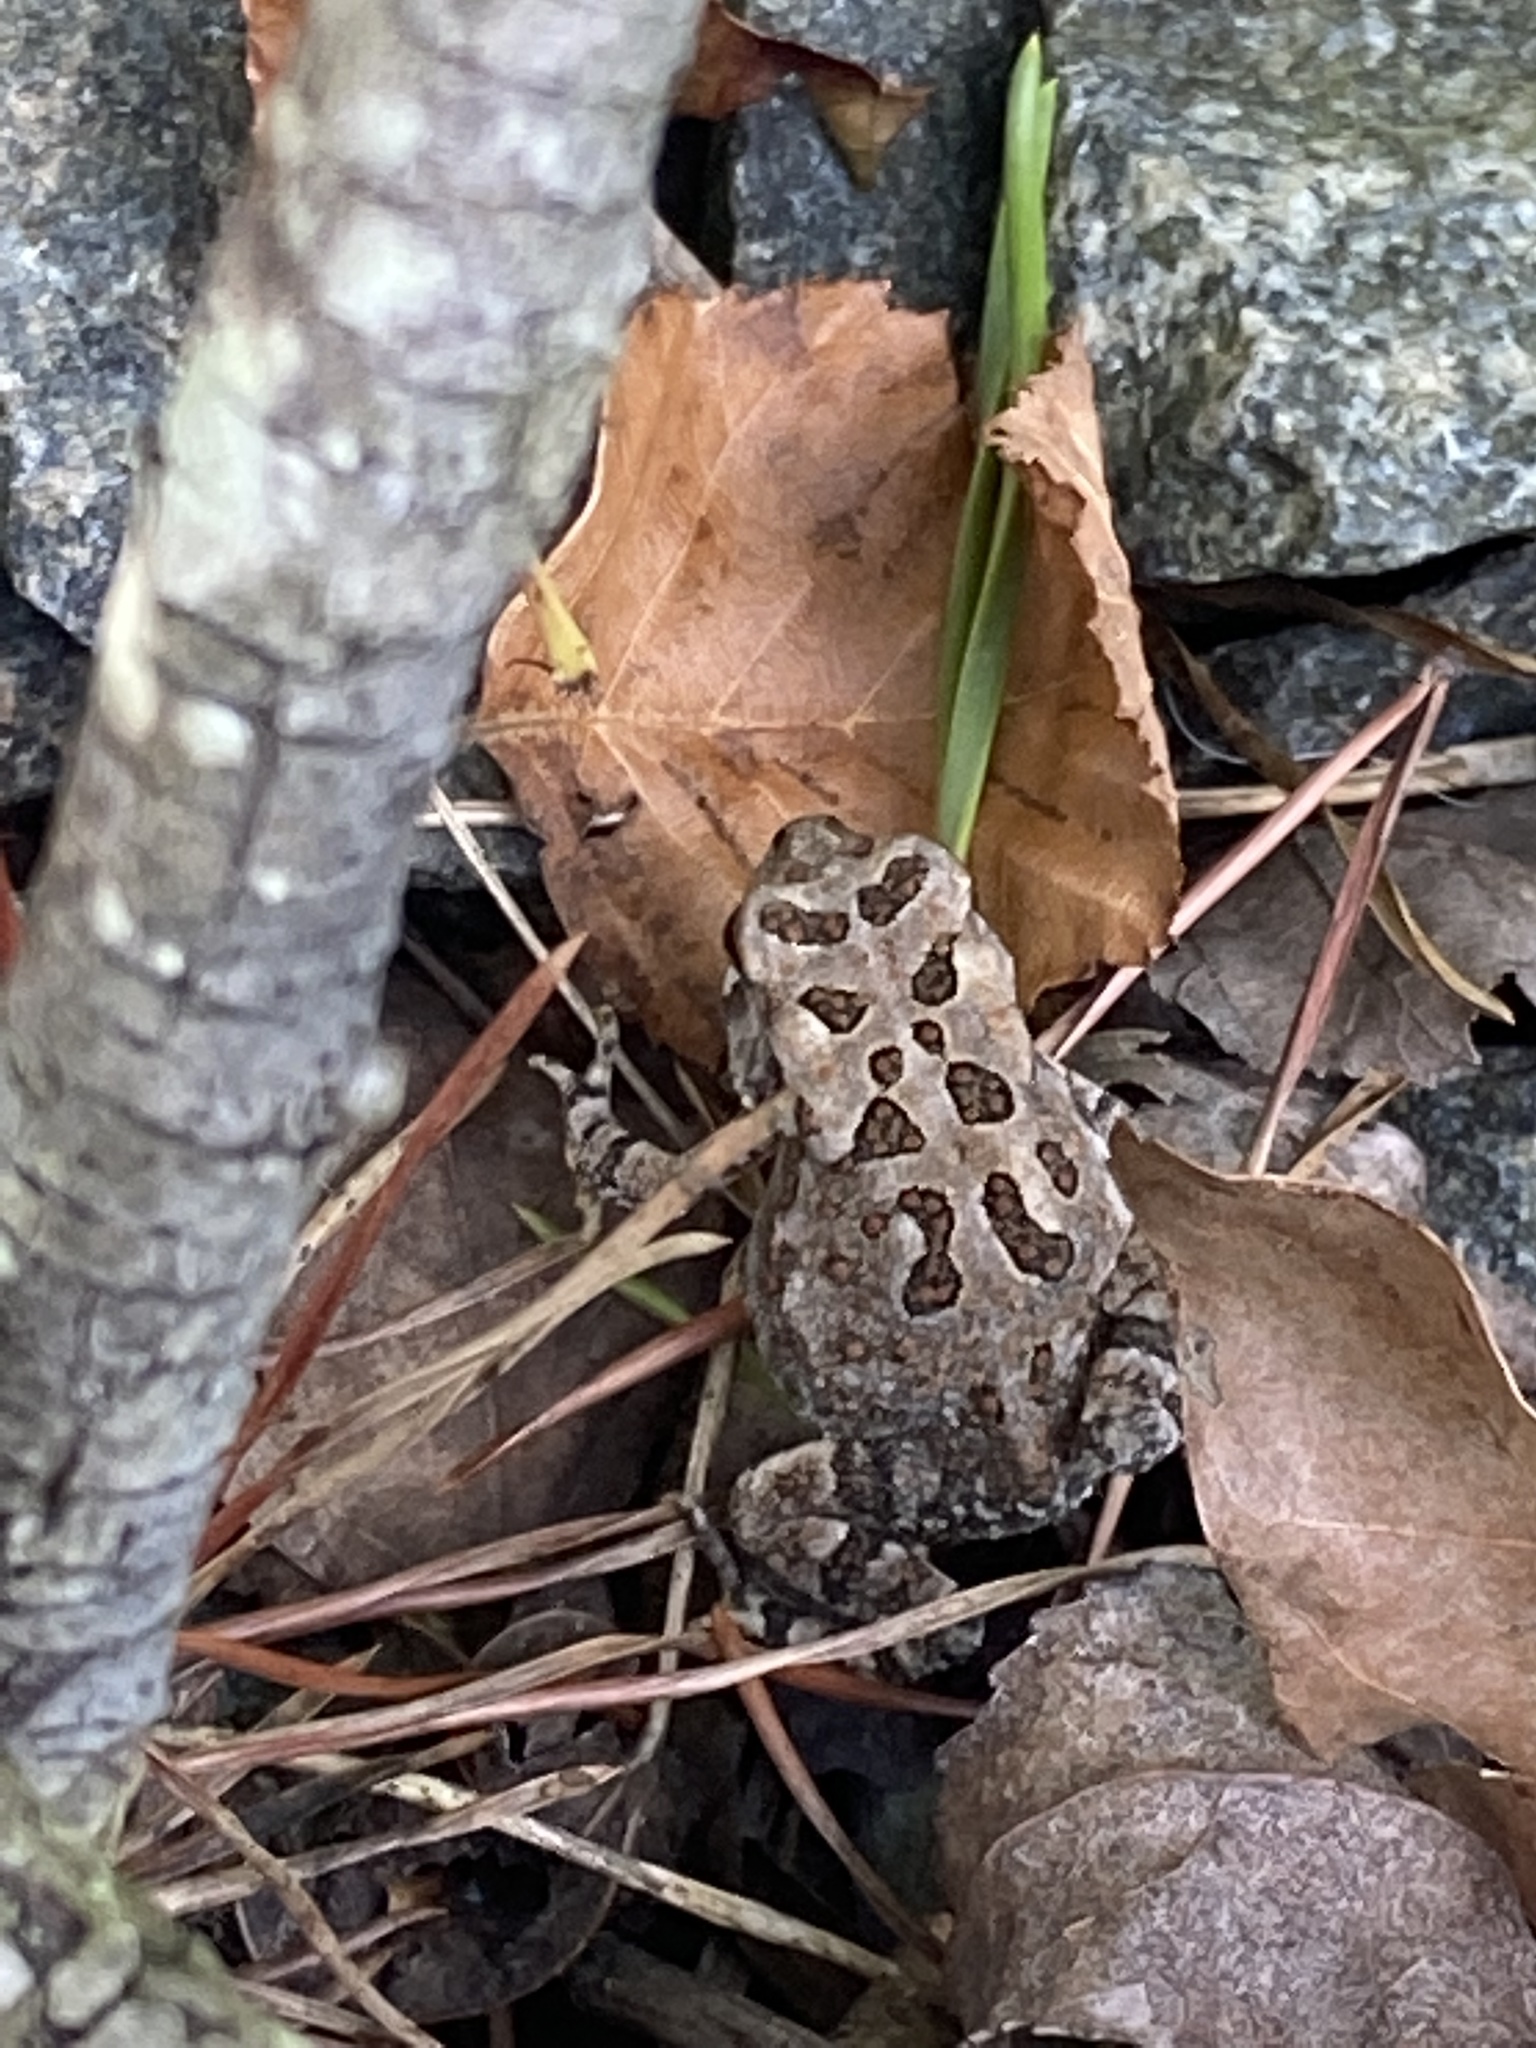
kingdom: Animalia
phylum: Chordata
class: Amphibia
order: Anura
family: Bufonidae
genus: Anaxyrus
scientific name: Anaxyrus fowleri
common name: Fowler's toad
